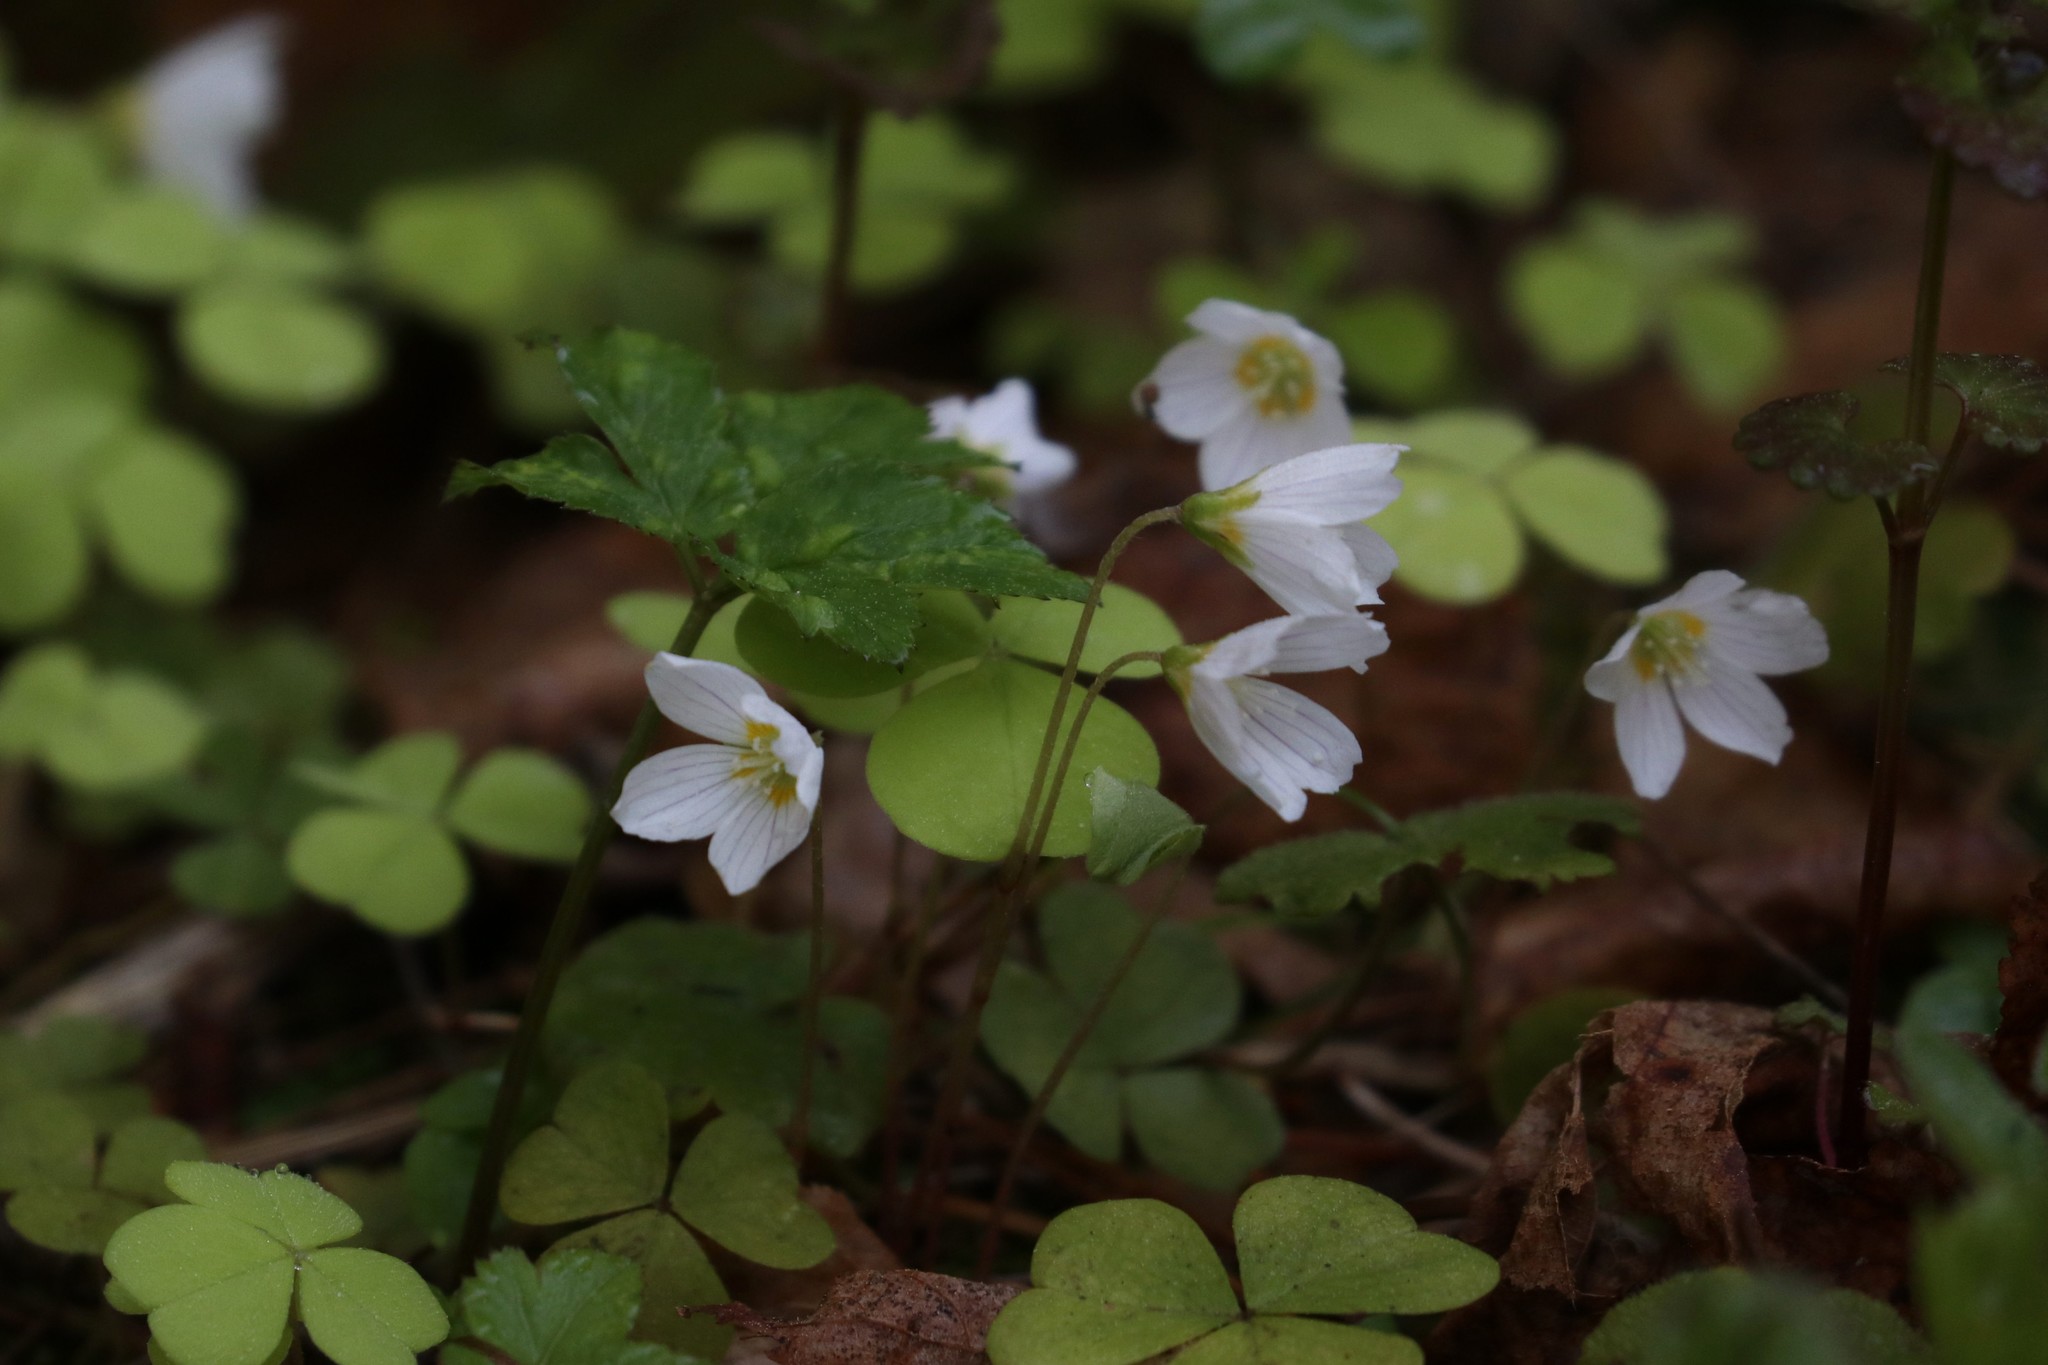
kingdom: Plantae
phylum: Tracheophyta
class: Magnoliopsida
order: Oxalidales
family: Oxalidaceae
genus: Oxalis
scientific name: Oxalis acetosella
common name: Wood-sorrel
